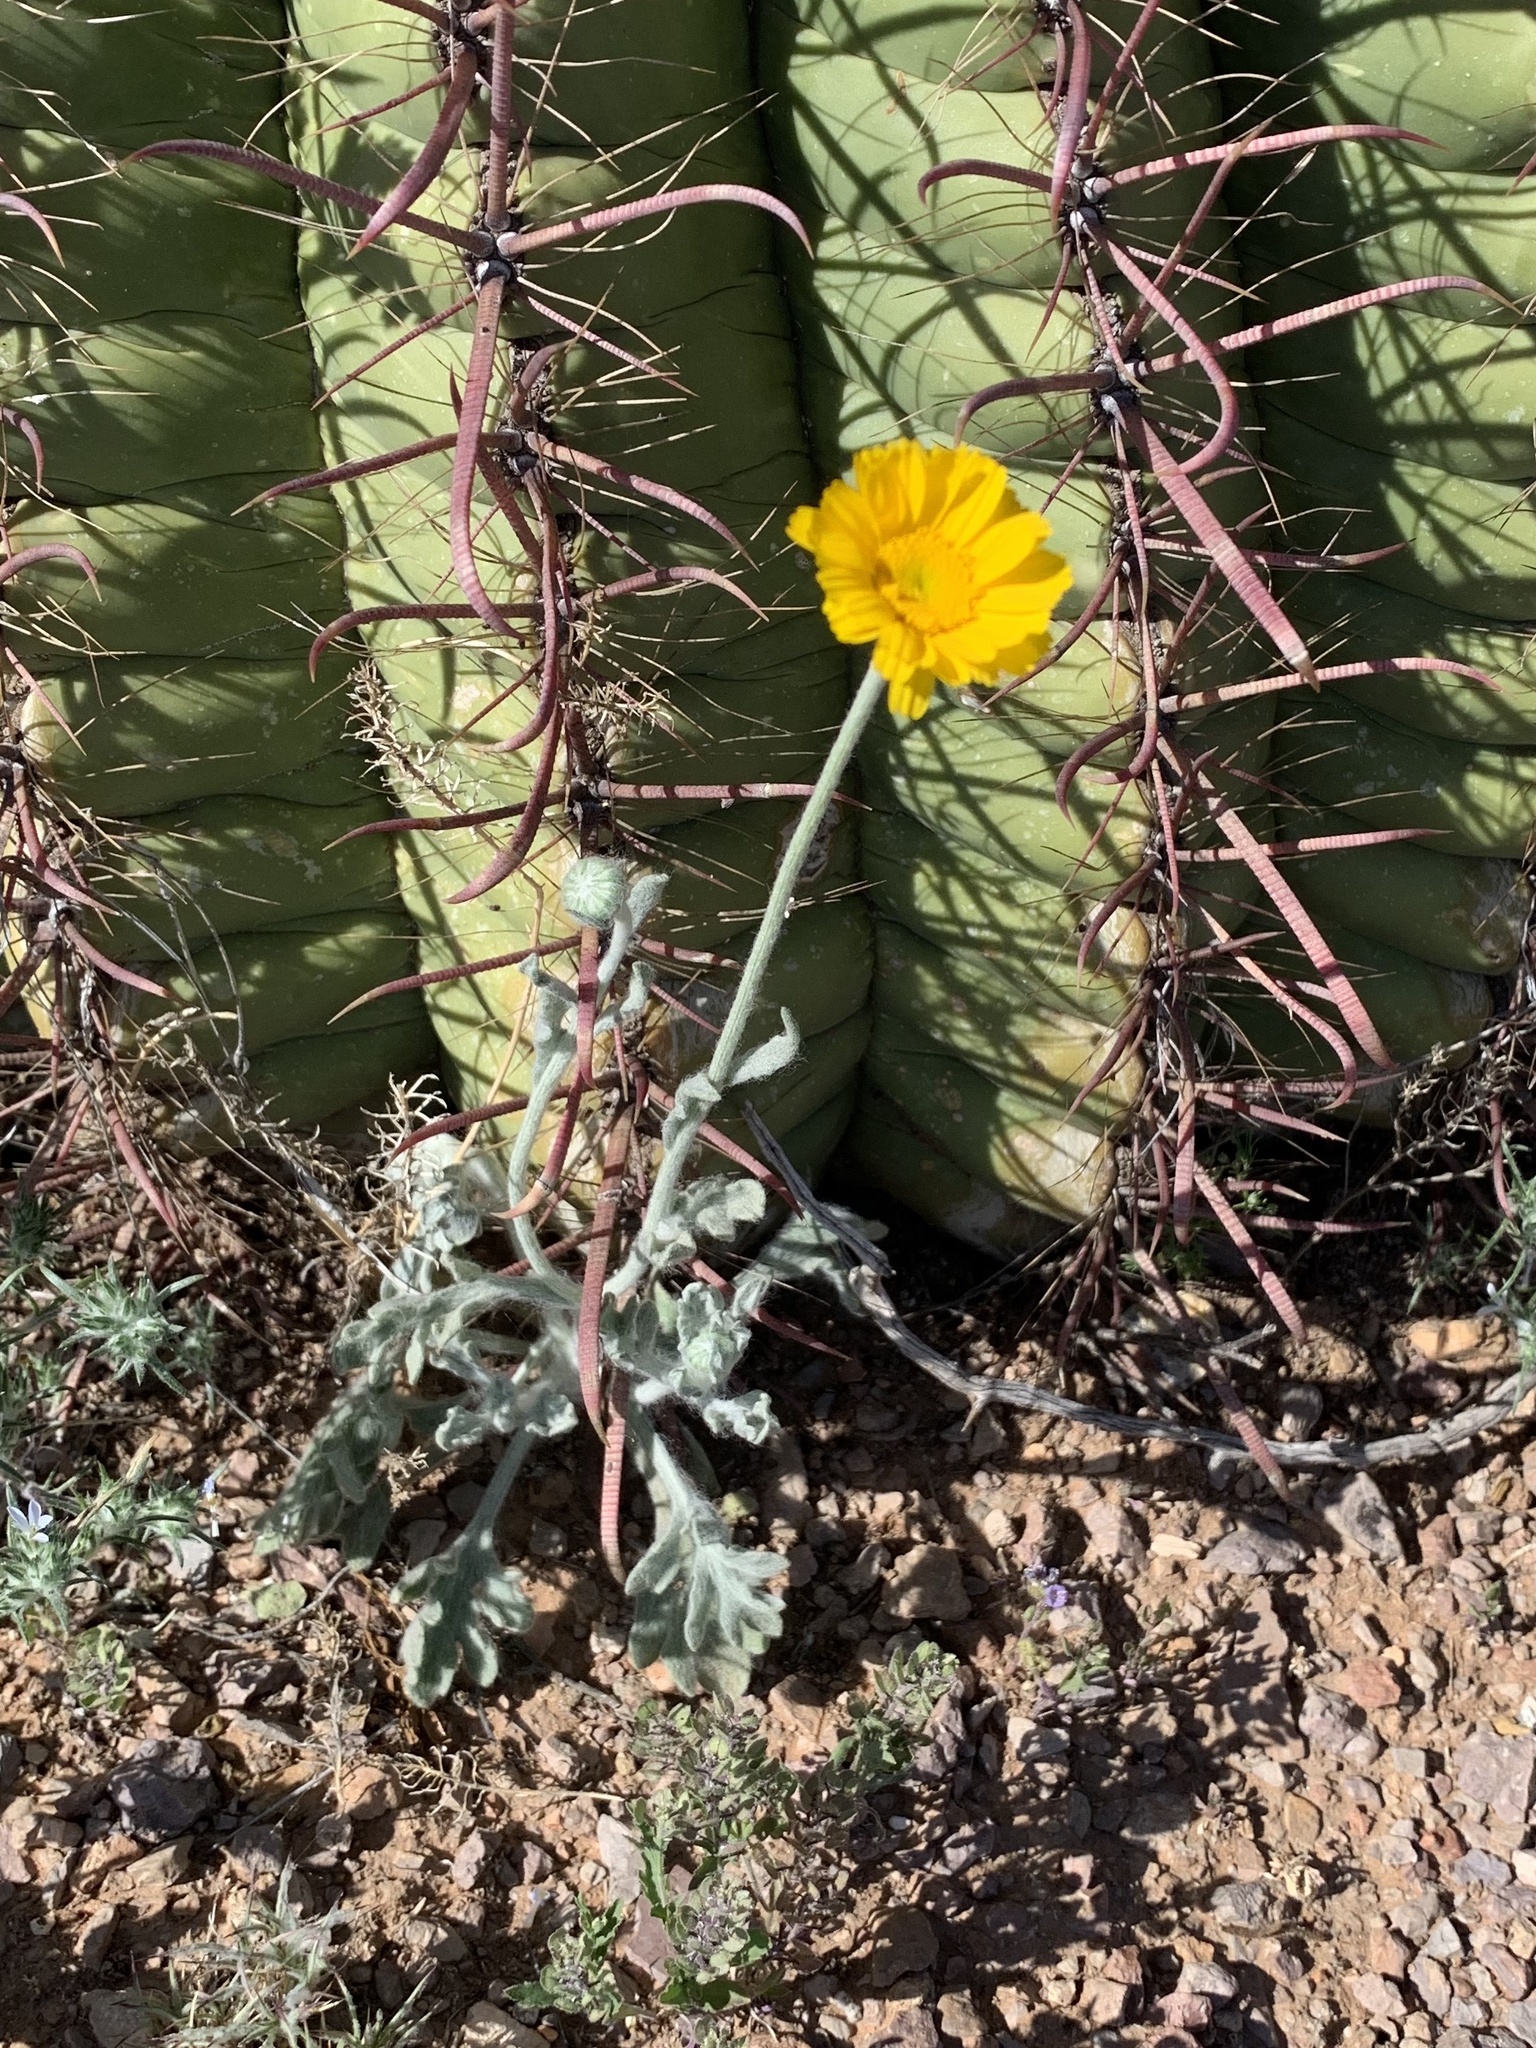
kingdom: Plantae
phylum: Tracheophyta
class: Magnoliopsida
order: Asterales
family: Asteraceae
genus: Baileya
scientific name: Baileya multiradiata
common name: Desert-marigold
